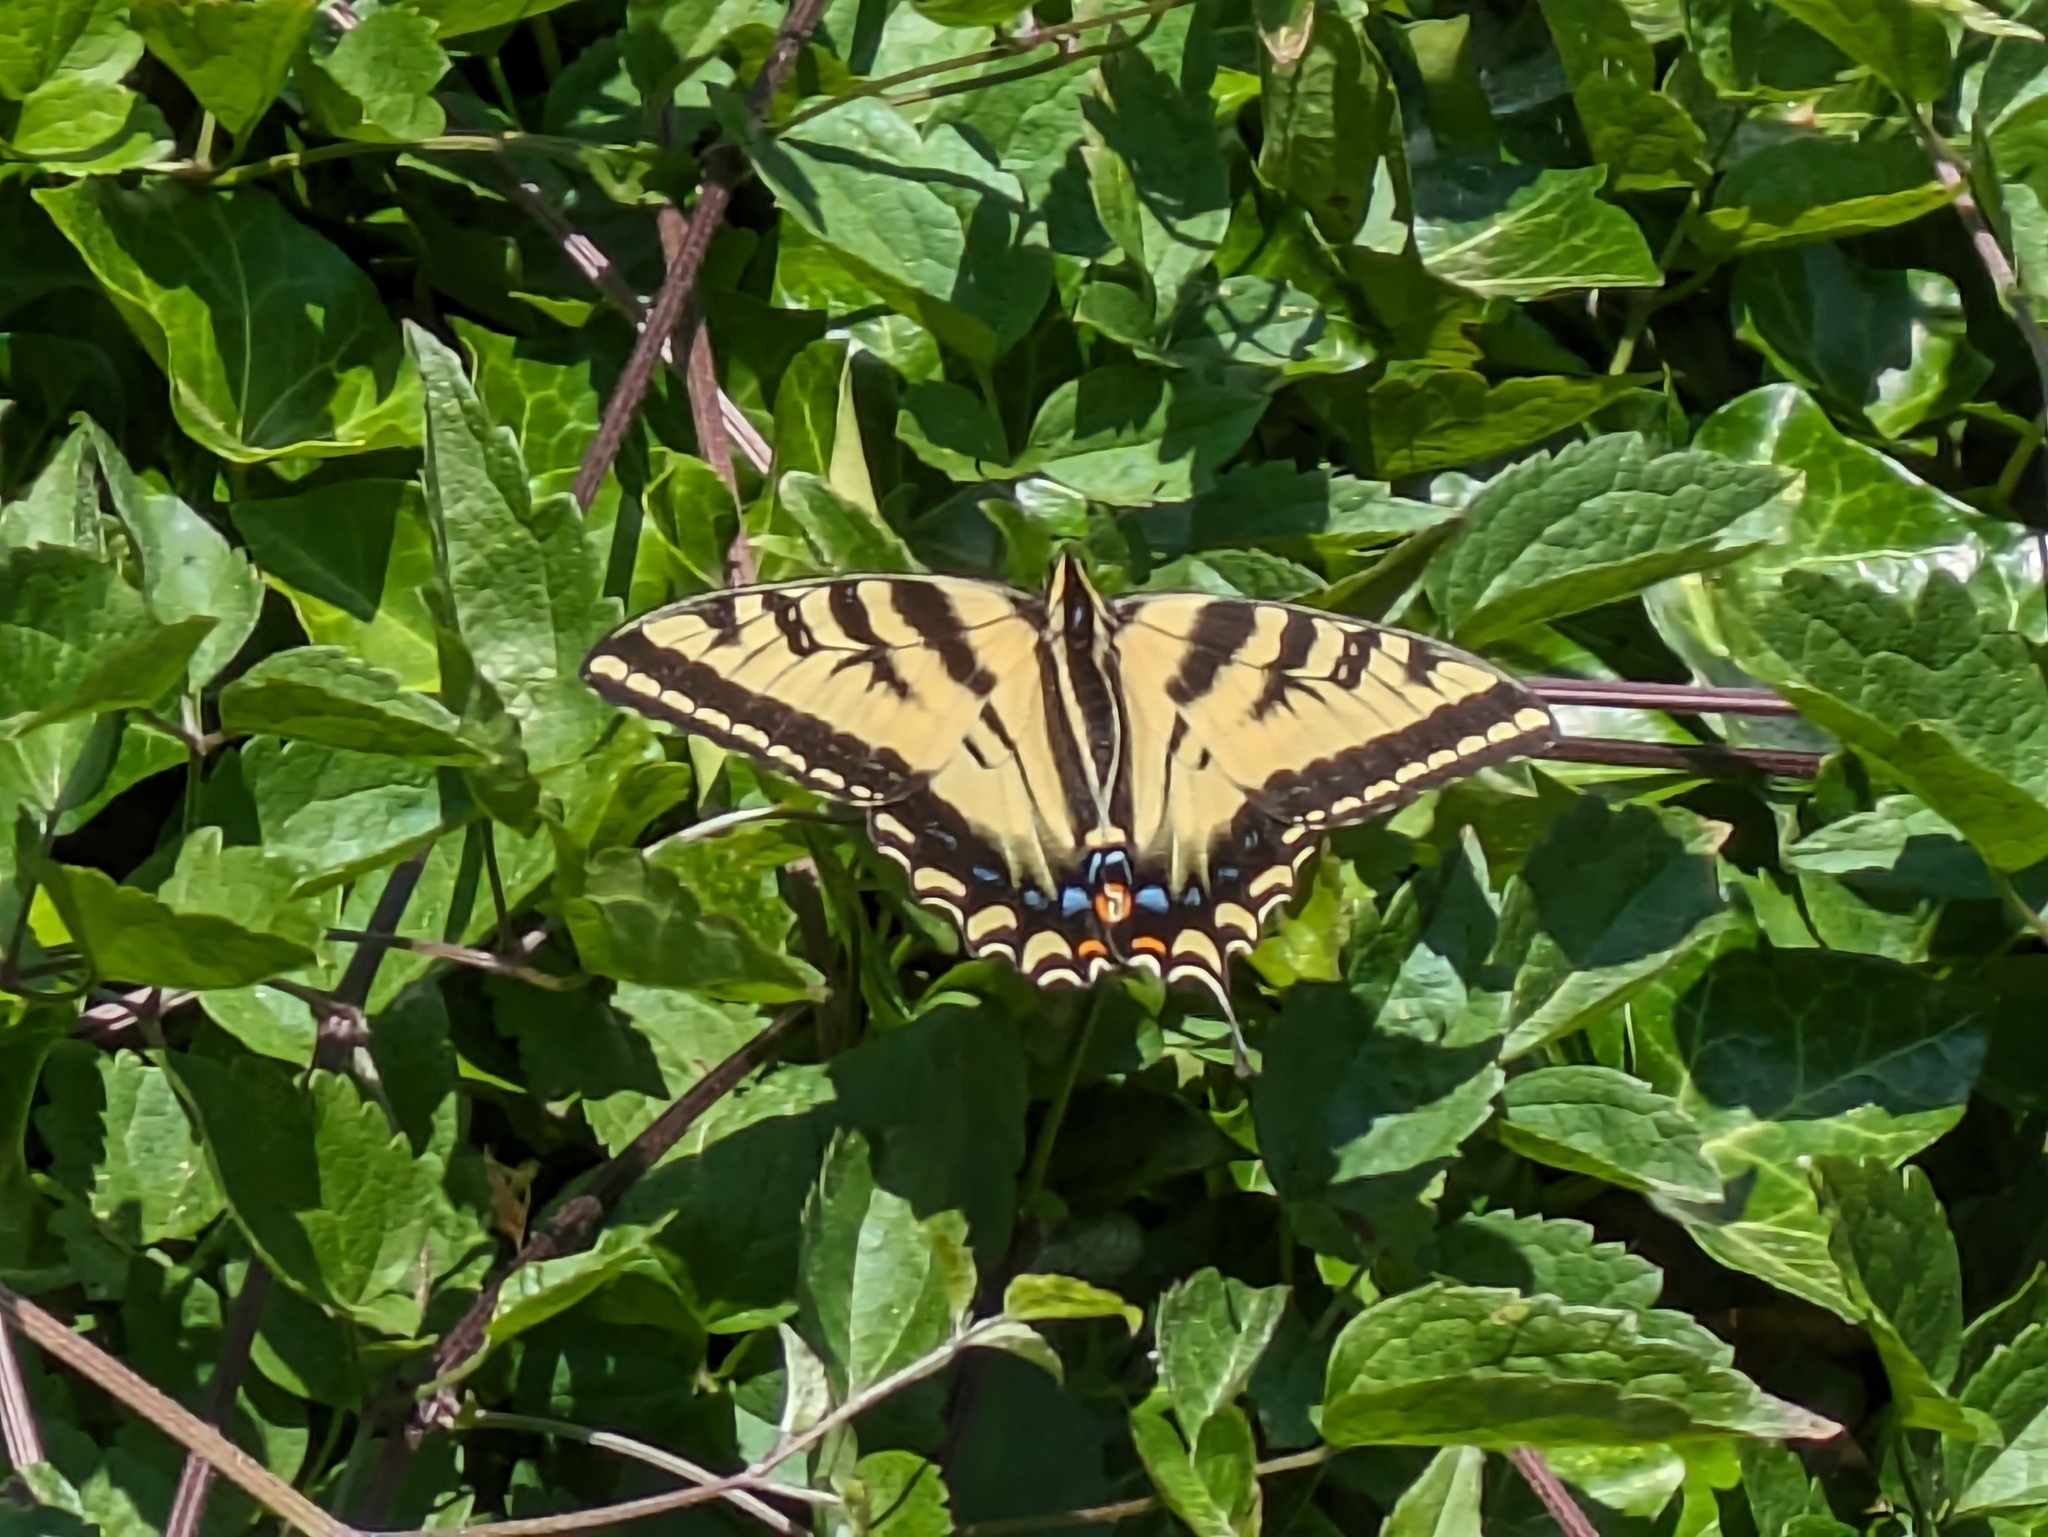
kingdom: Animalia
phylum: Arthropoda
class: Insecta
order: Lepidoptera
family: Papilionidae
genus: Papilio
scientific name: Papilio rutulus
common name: Western tiger swallowtail
